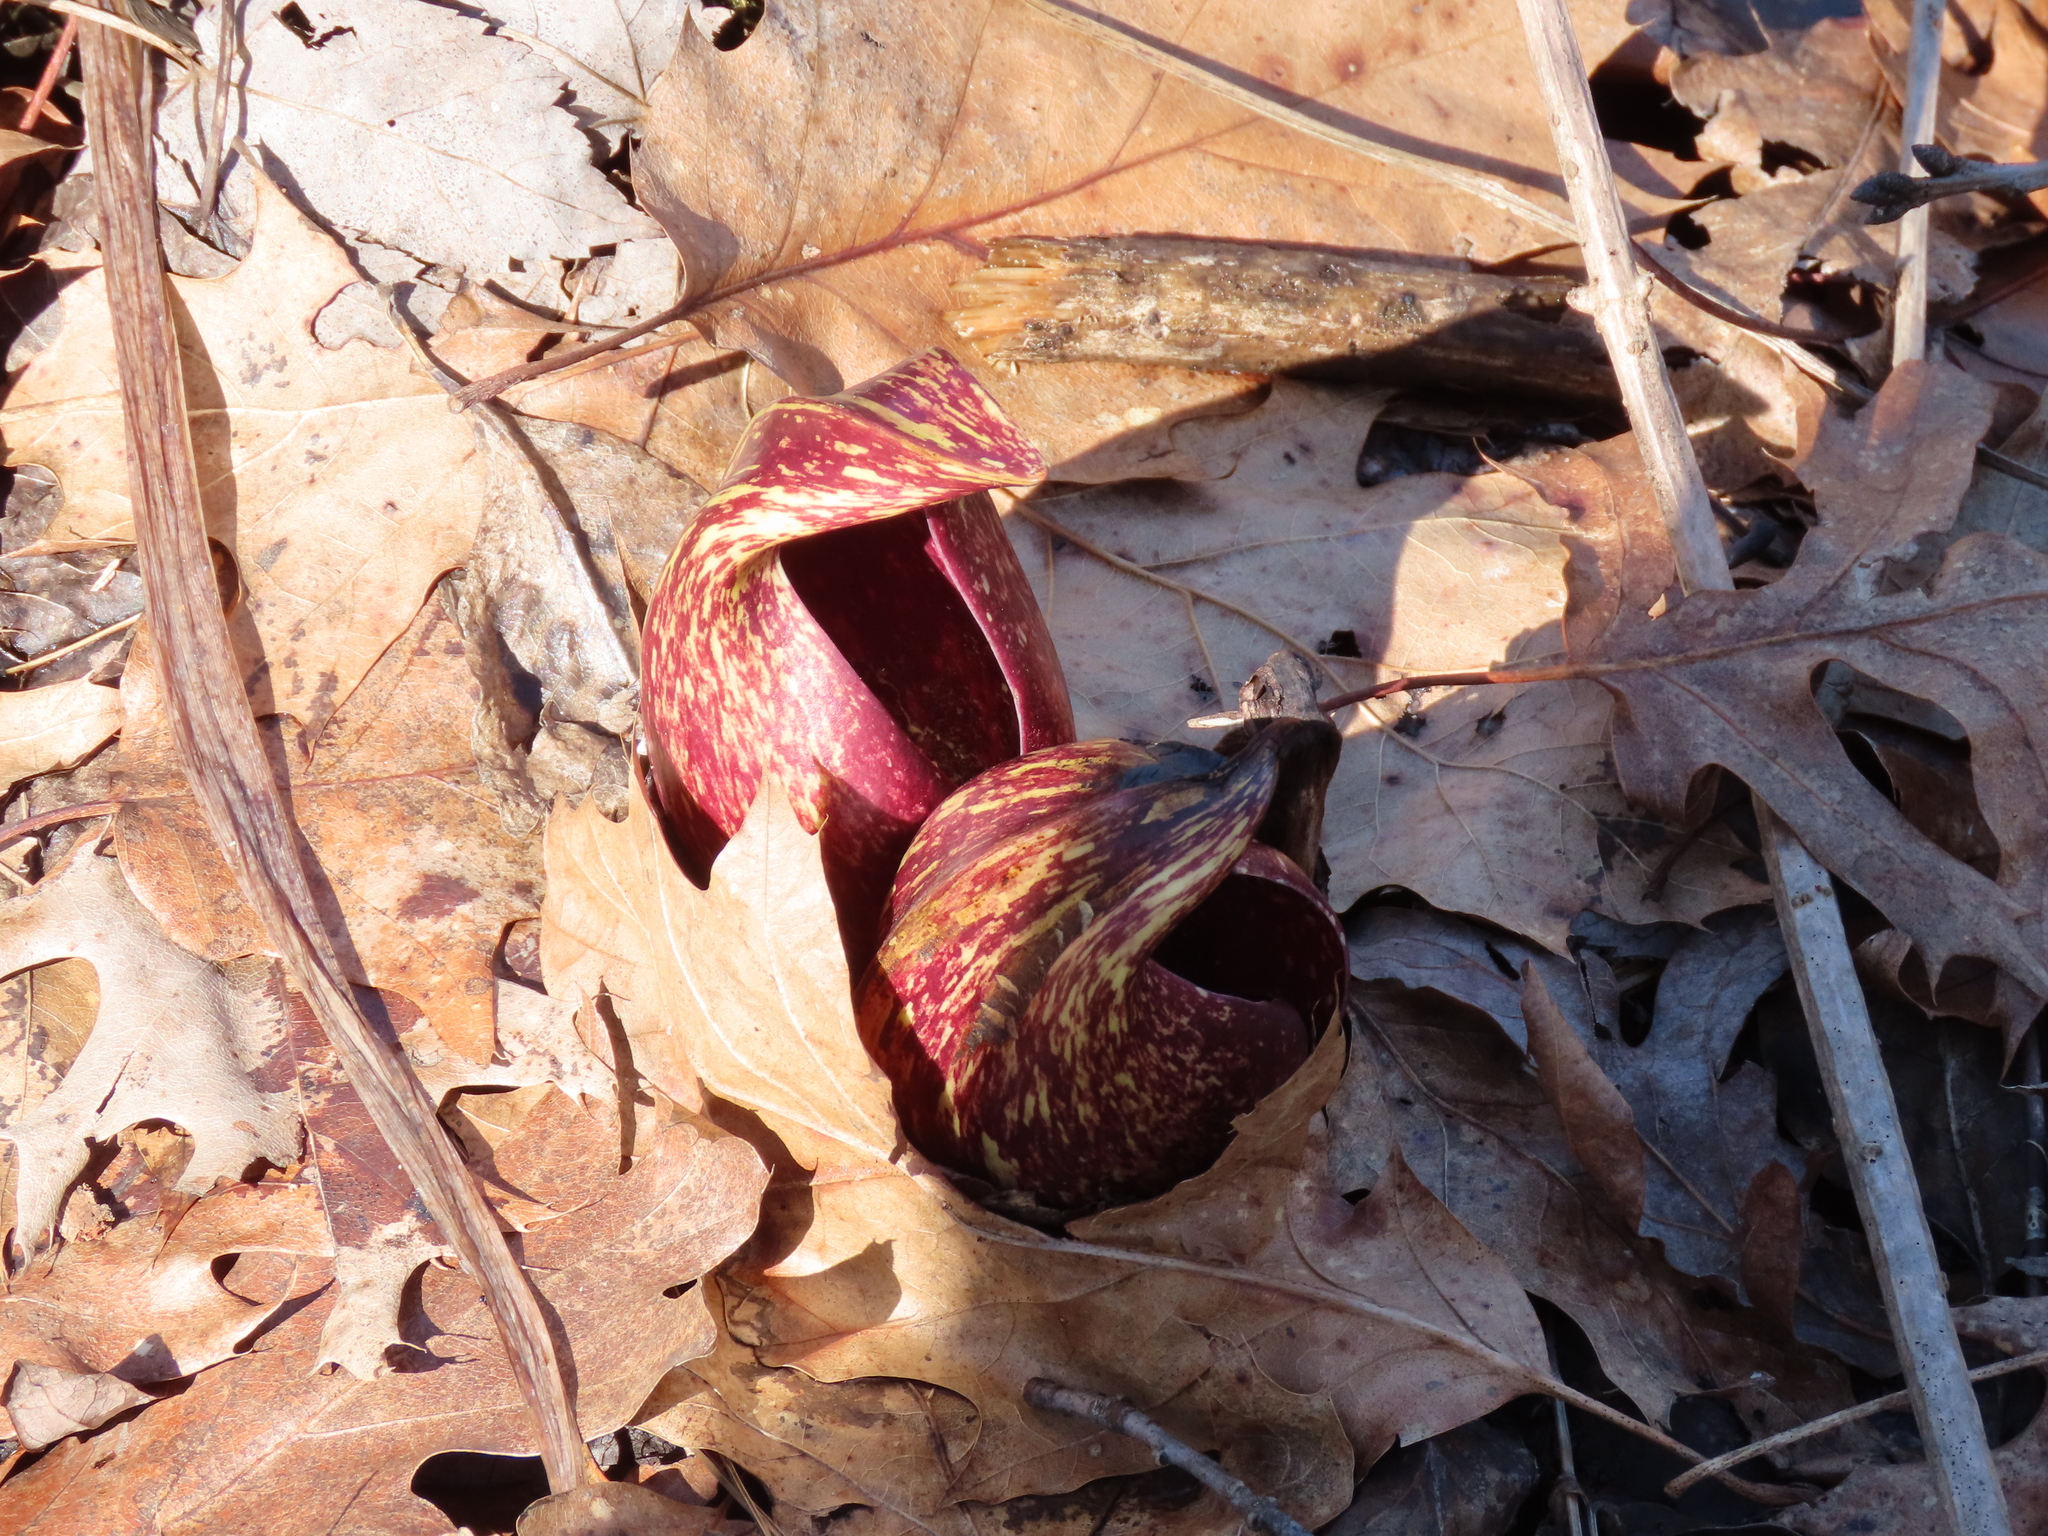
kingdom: Plantae
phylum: Tracheophyta
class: Liliopsida
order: Alismatales
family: Araceae
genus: Symplocarpus
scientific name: Symplocarpus foetidus
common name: Eastern skunk cabbage
